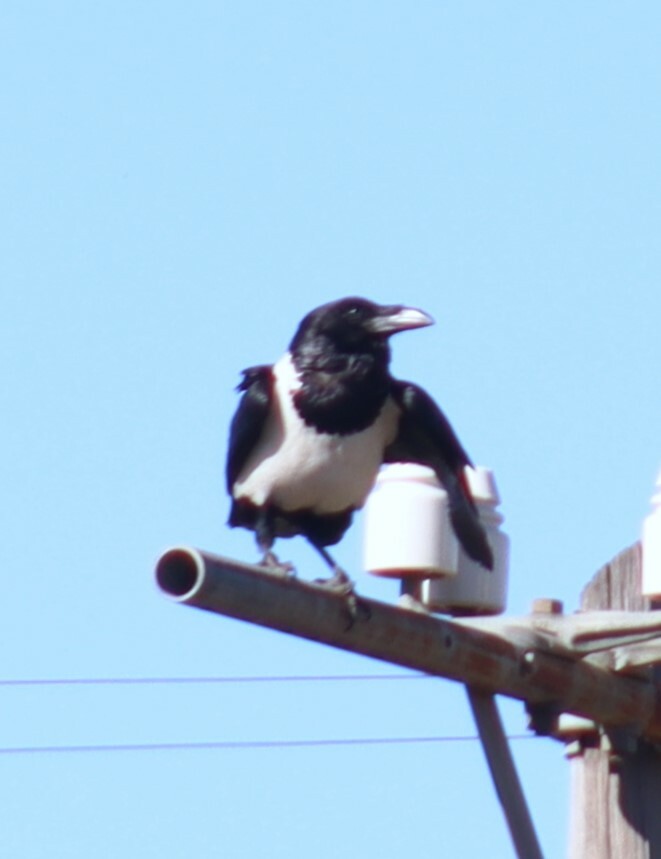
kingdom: Animalia
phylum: Chordata
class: Aves
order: Passeriformes
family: Corvidae
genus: Corvus
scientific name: Corvus albus
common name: Pied crow
